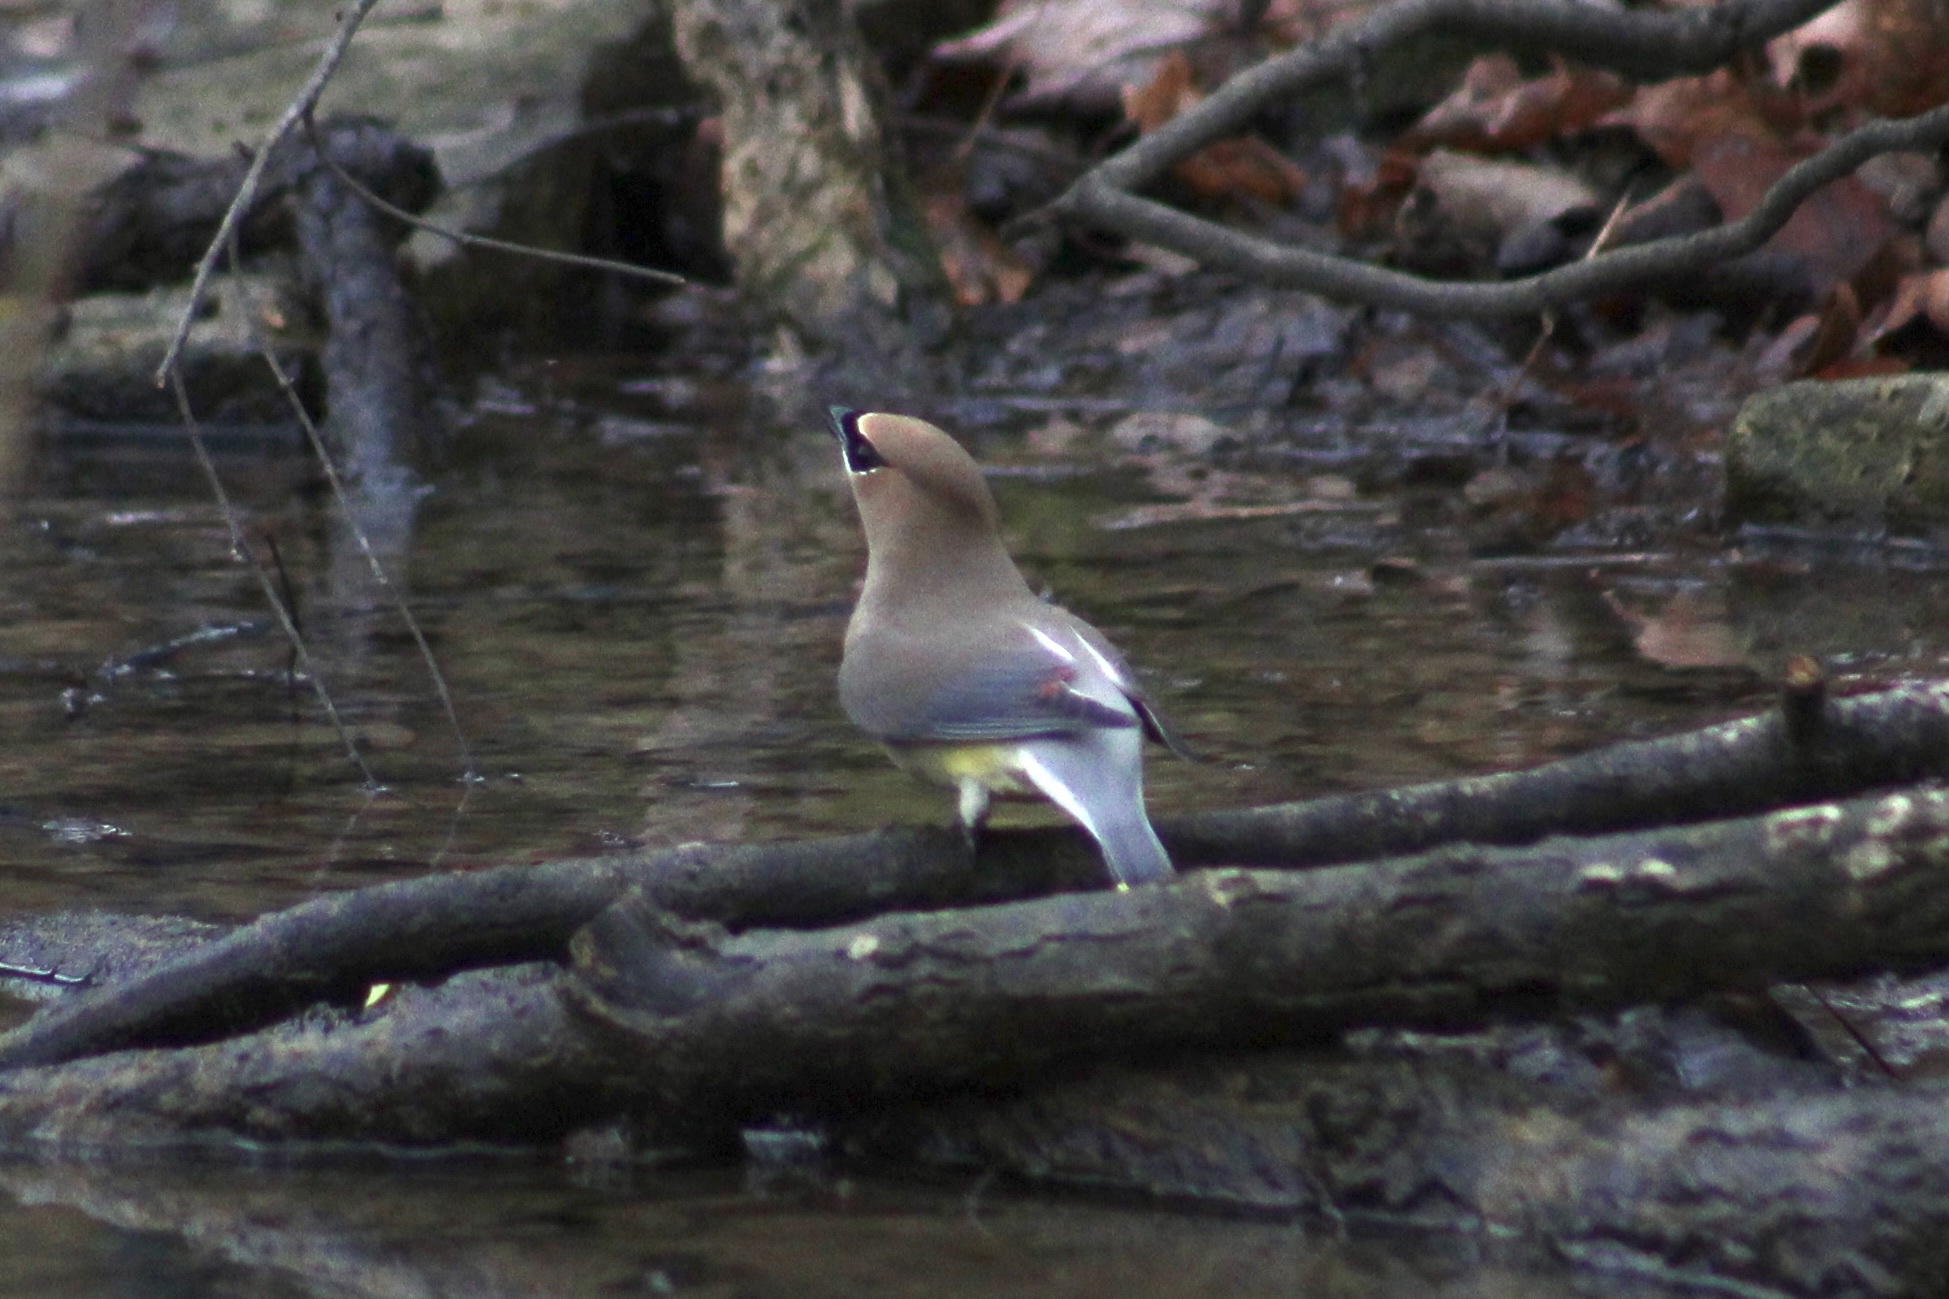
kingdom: Animalia
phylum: Chordata
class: Aves
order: Passeriformes
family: Bombycillidae
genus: Bombycilla
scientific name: Bombycilla cedrorum
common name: Cedar waxwing
